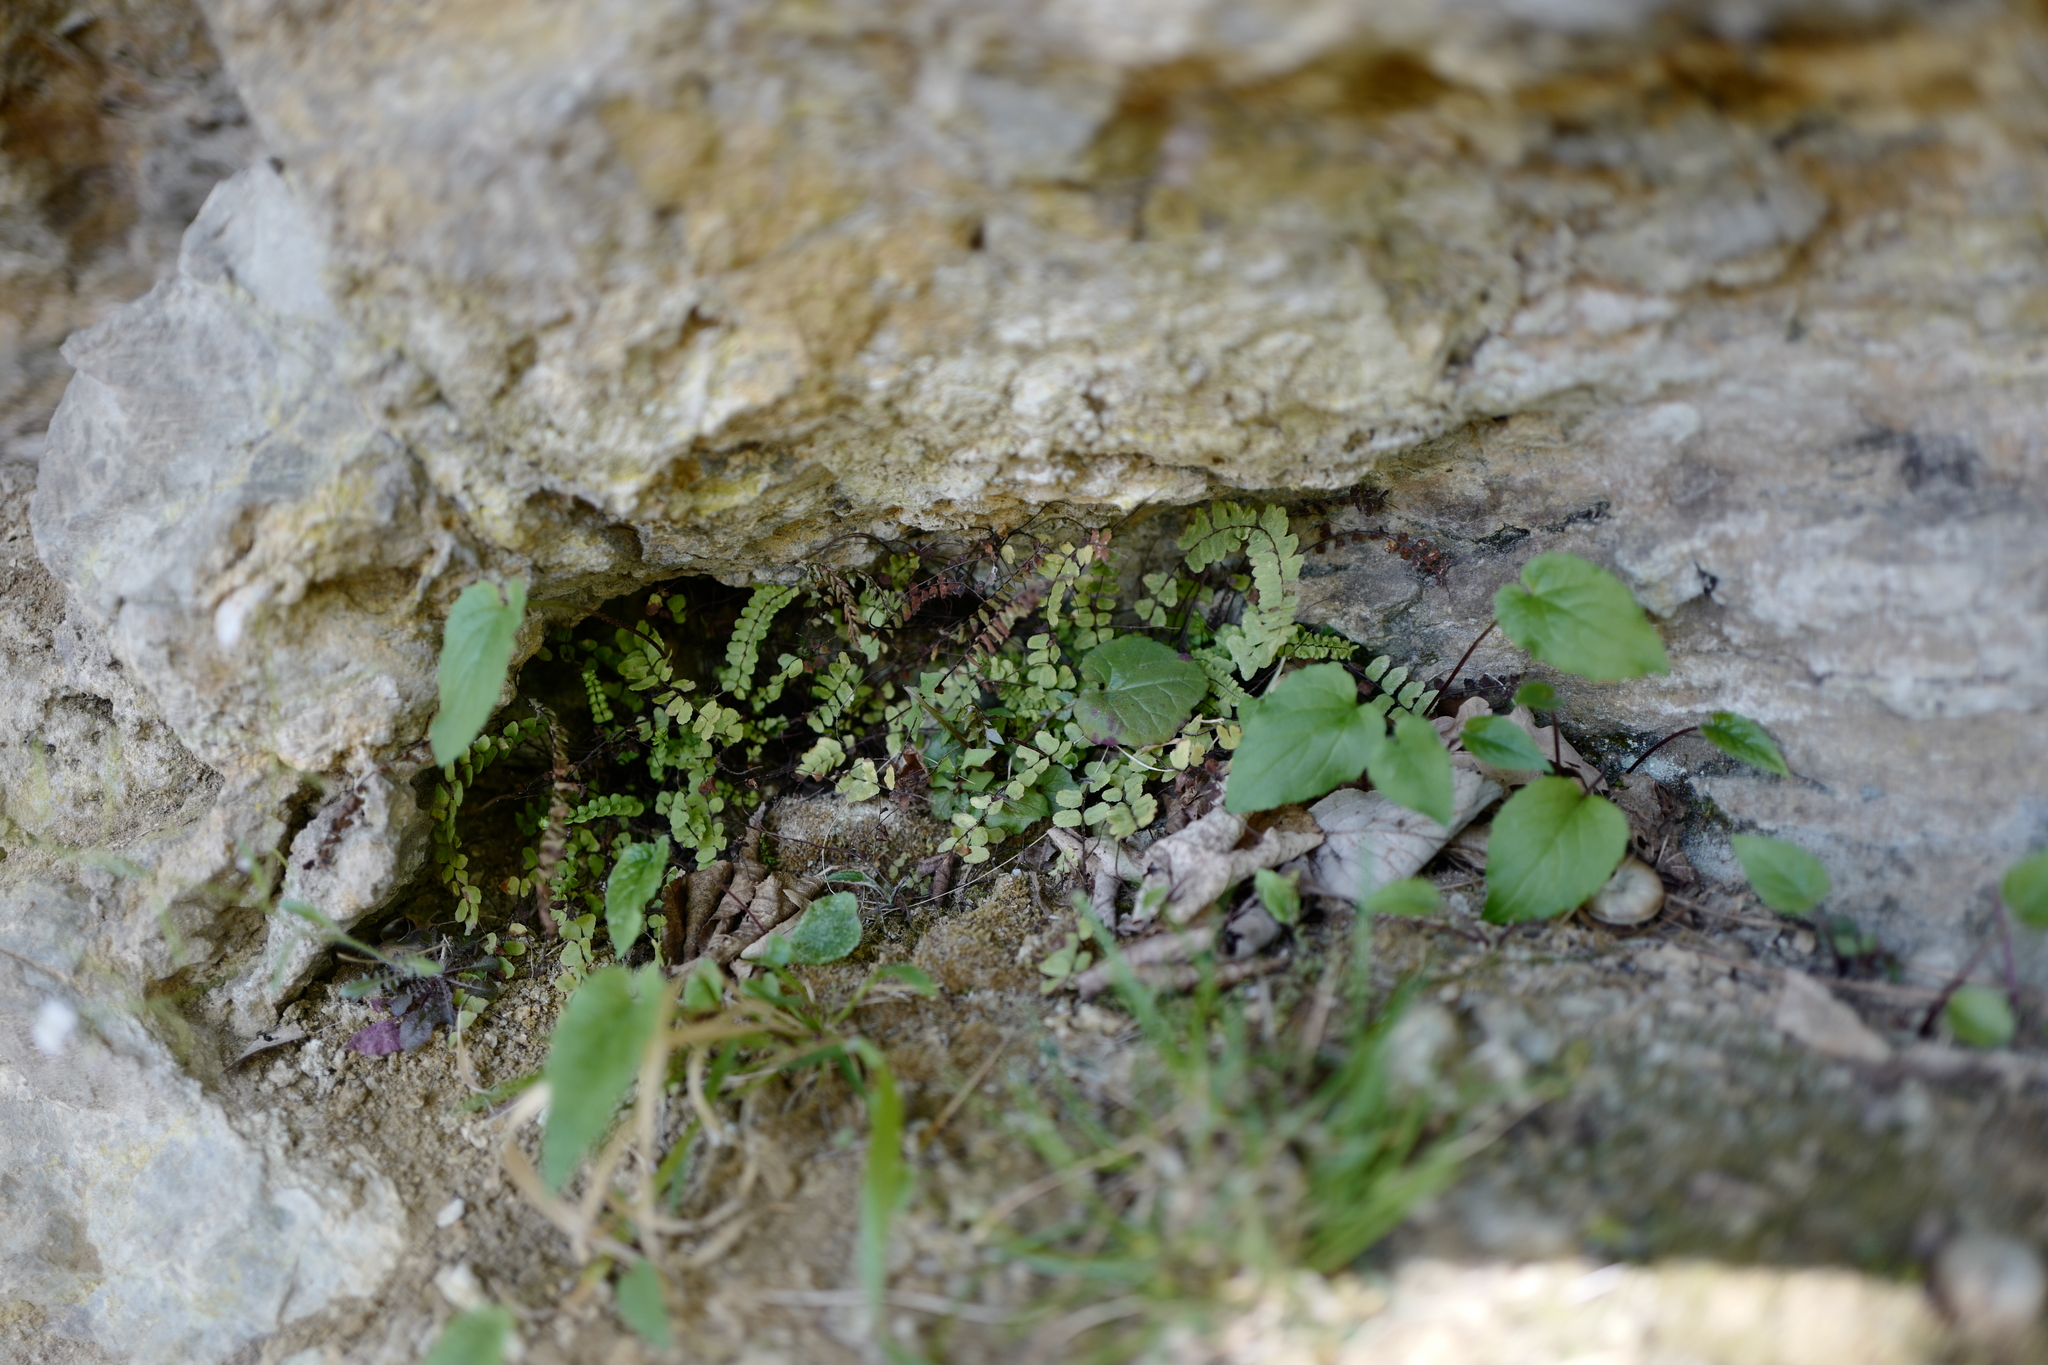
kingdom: Plantae
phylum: Tracheophyta
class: Polypodiopsida
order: Polypodiales
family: Aspleniaceae
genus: Asplenium
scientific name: Asplenium trichomanes
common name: Maidenhair spleenwort
